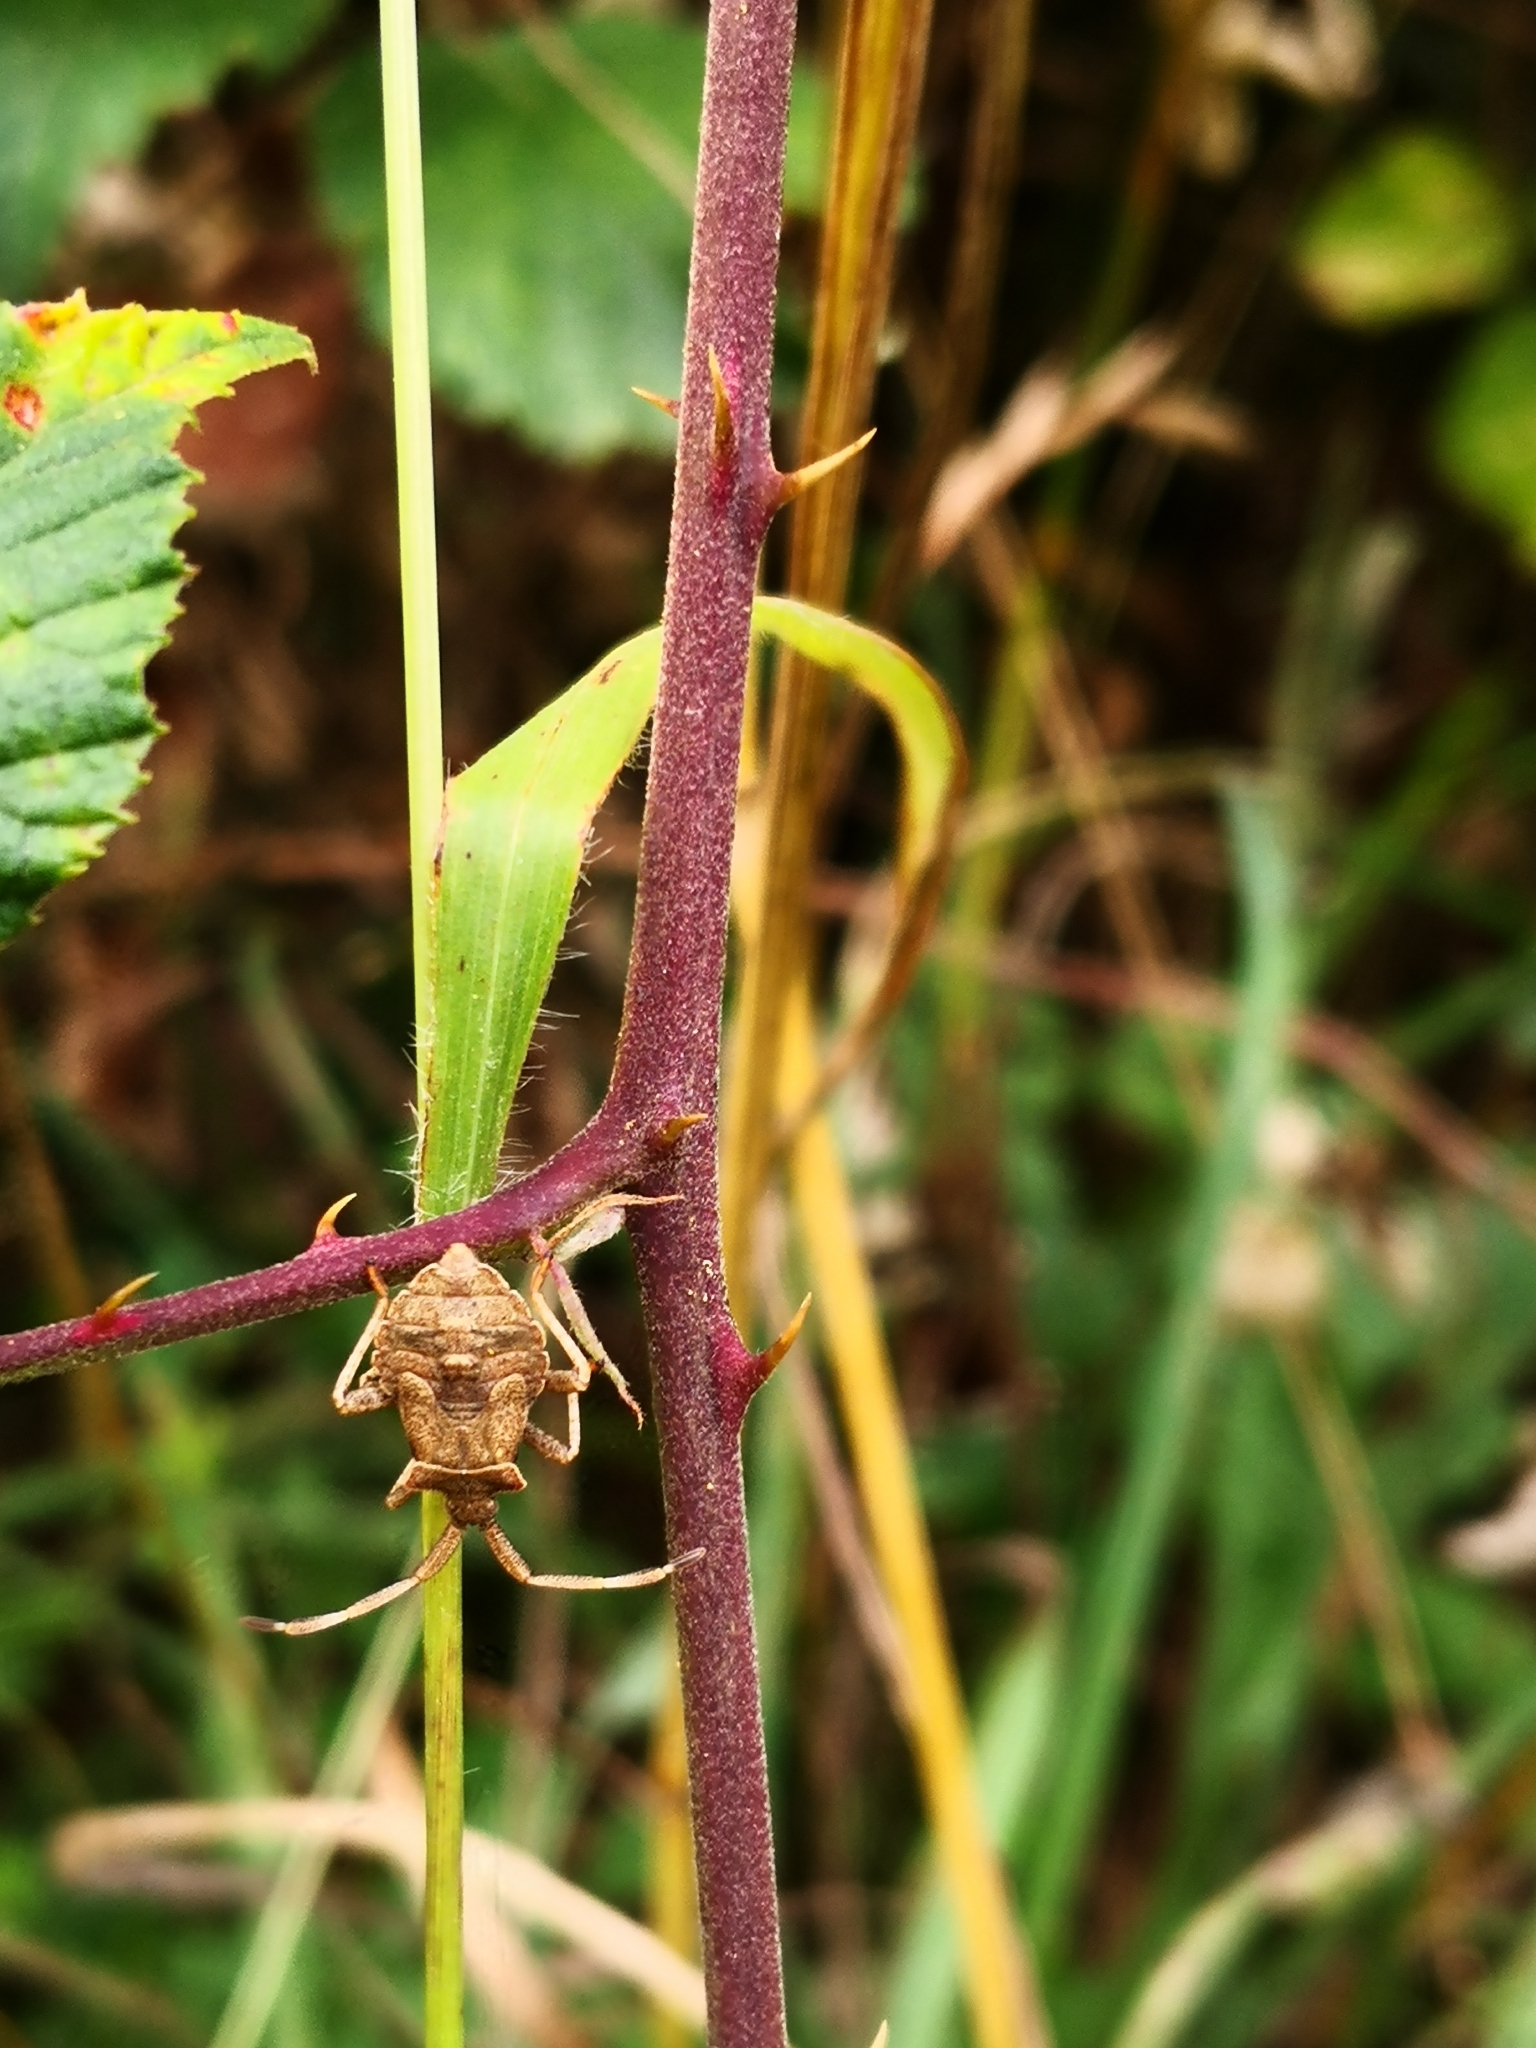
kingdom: Animalia
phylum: Arthropoda
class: Insecta
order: Hemiptera
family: Coreidae
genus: Coreus
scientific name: Coreus marginatus
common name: Dock bug
